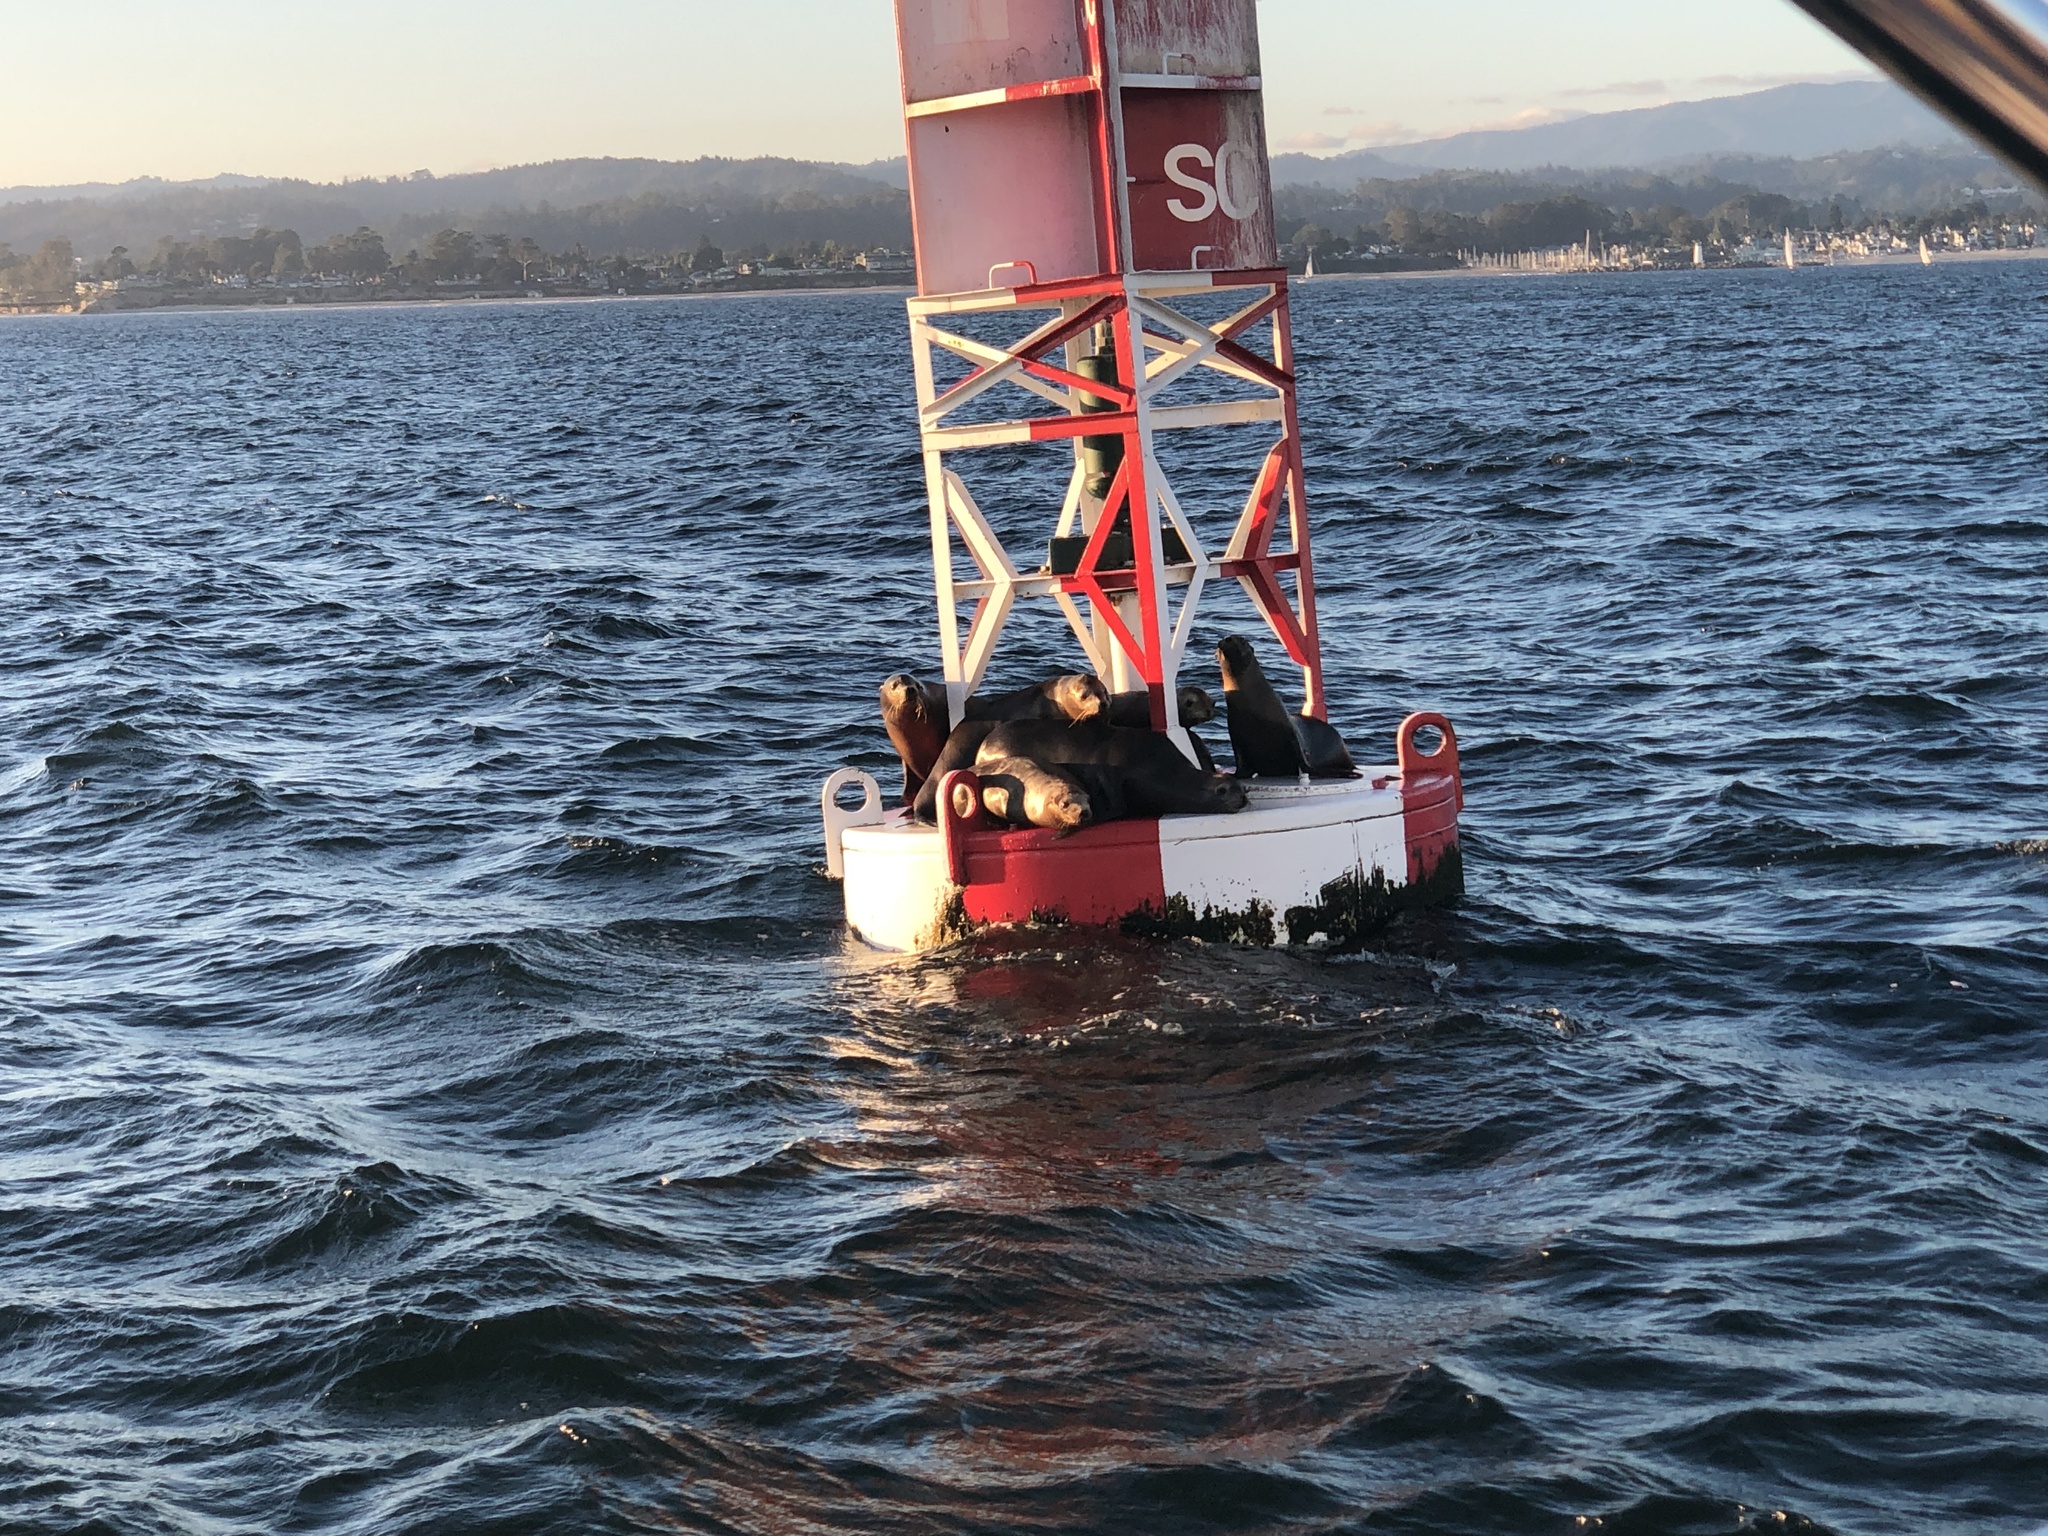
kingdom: Animalia
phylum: Chordata
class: Mammalia
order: Carnivora
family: Otariidae
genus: Zalophus
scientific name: Zalophus californianus
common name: California sea lion
